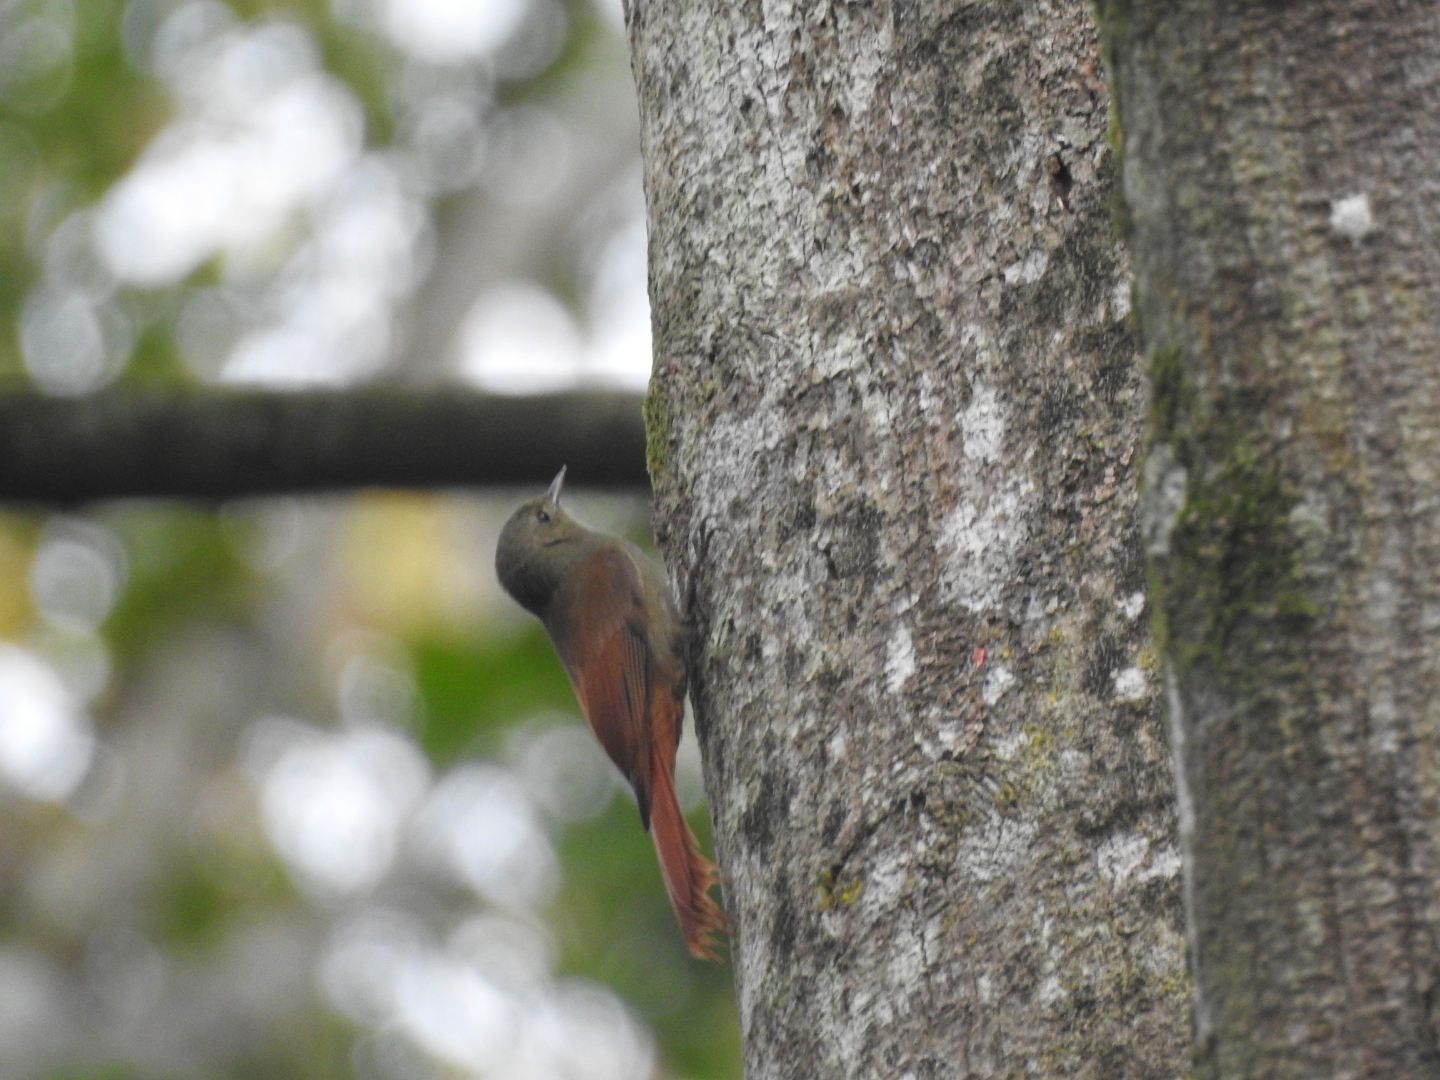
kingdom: Animalia
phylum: Chordata
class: Aves
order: Passeriformes
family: Furnariidae
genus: Sittasomus
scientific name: Sittasomus griseicapillus
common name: Olivaceous woodcreeper
